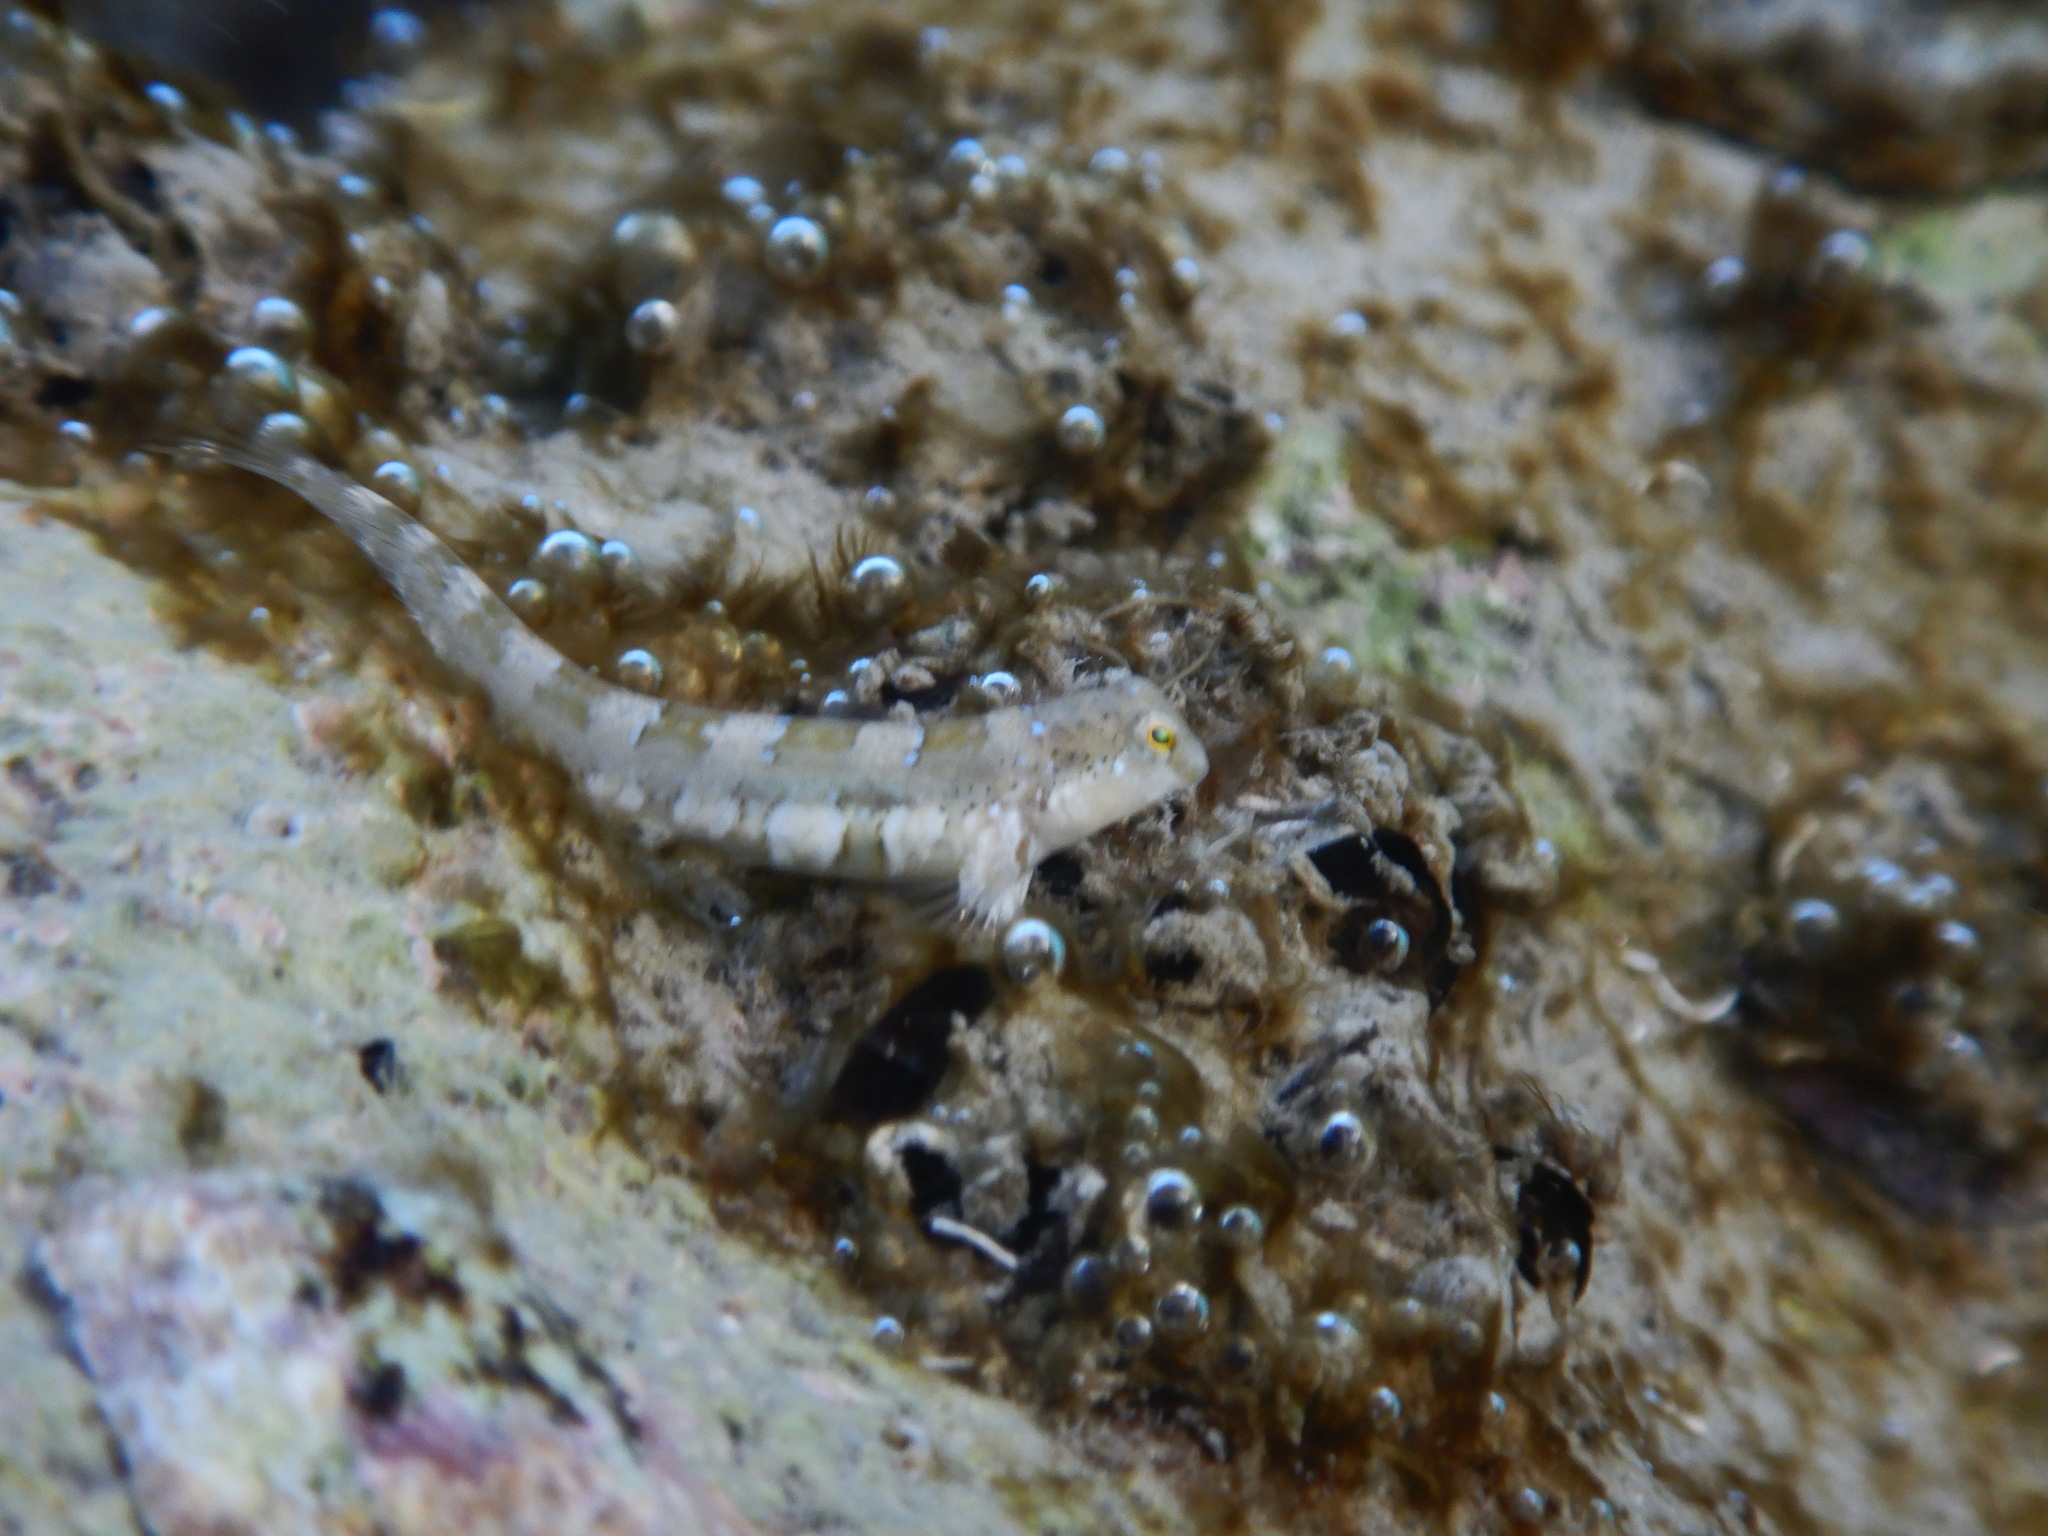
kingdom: Animalia
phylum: Chordata
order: Perciformes
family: Blenniidae
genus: Microlipophrys
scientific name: Microlipophrys dalmatinus
